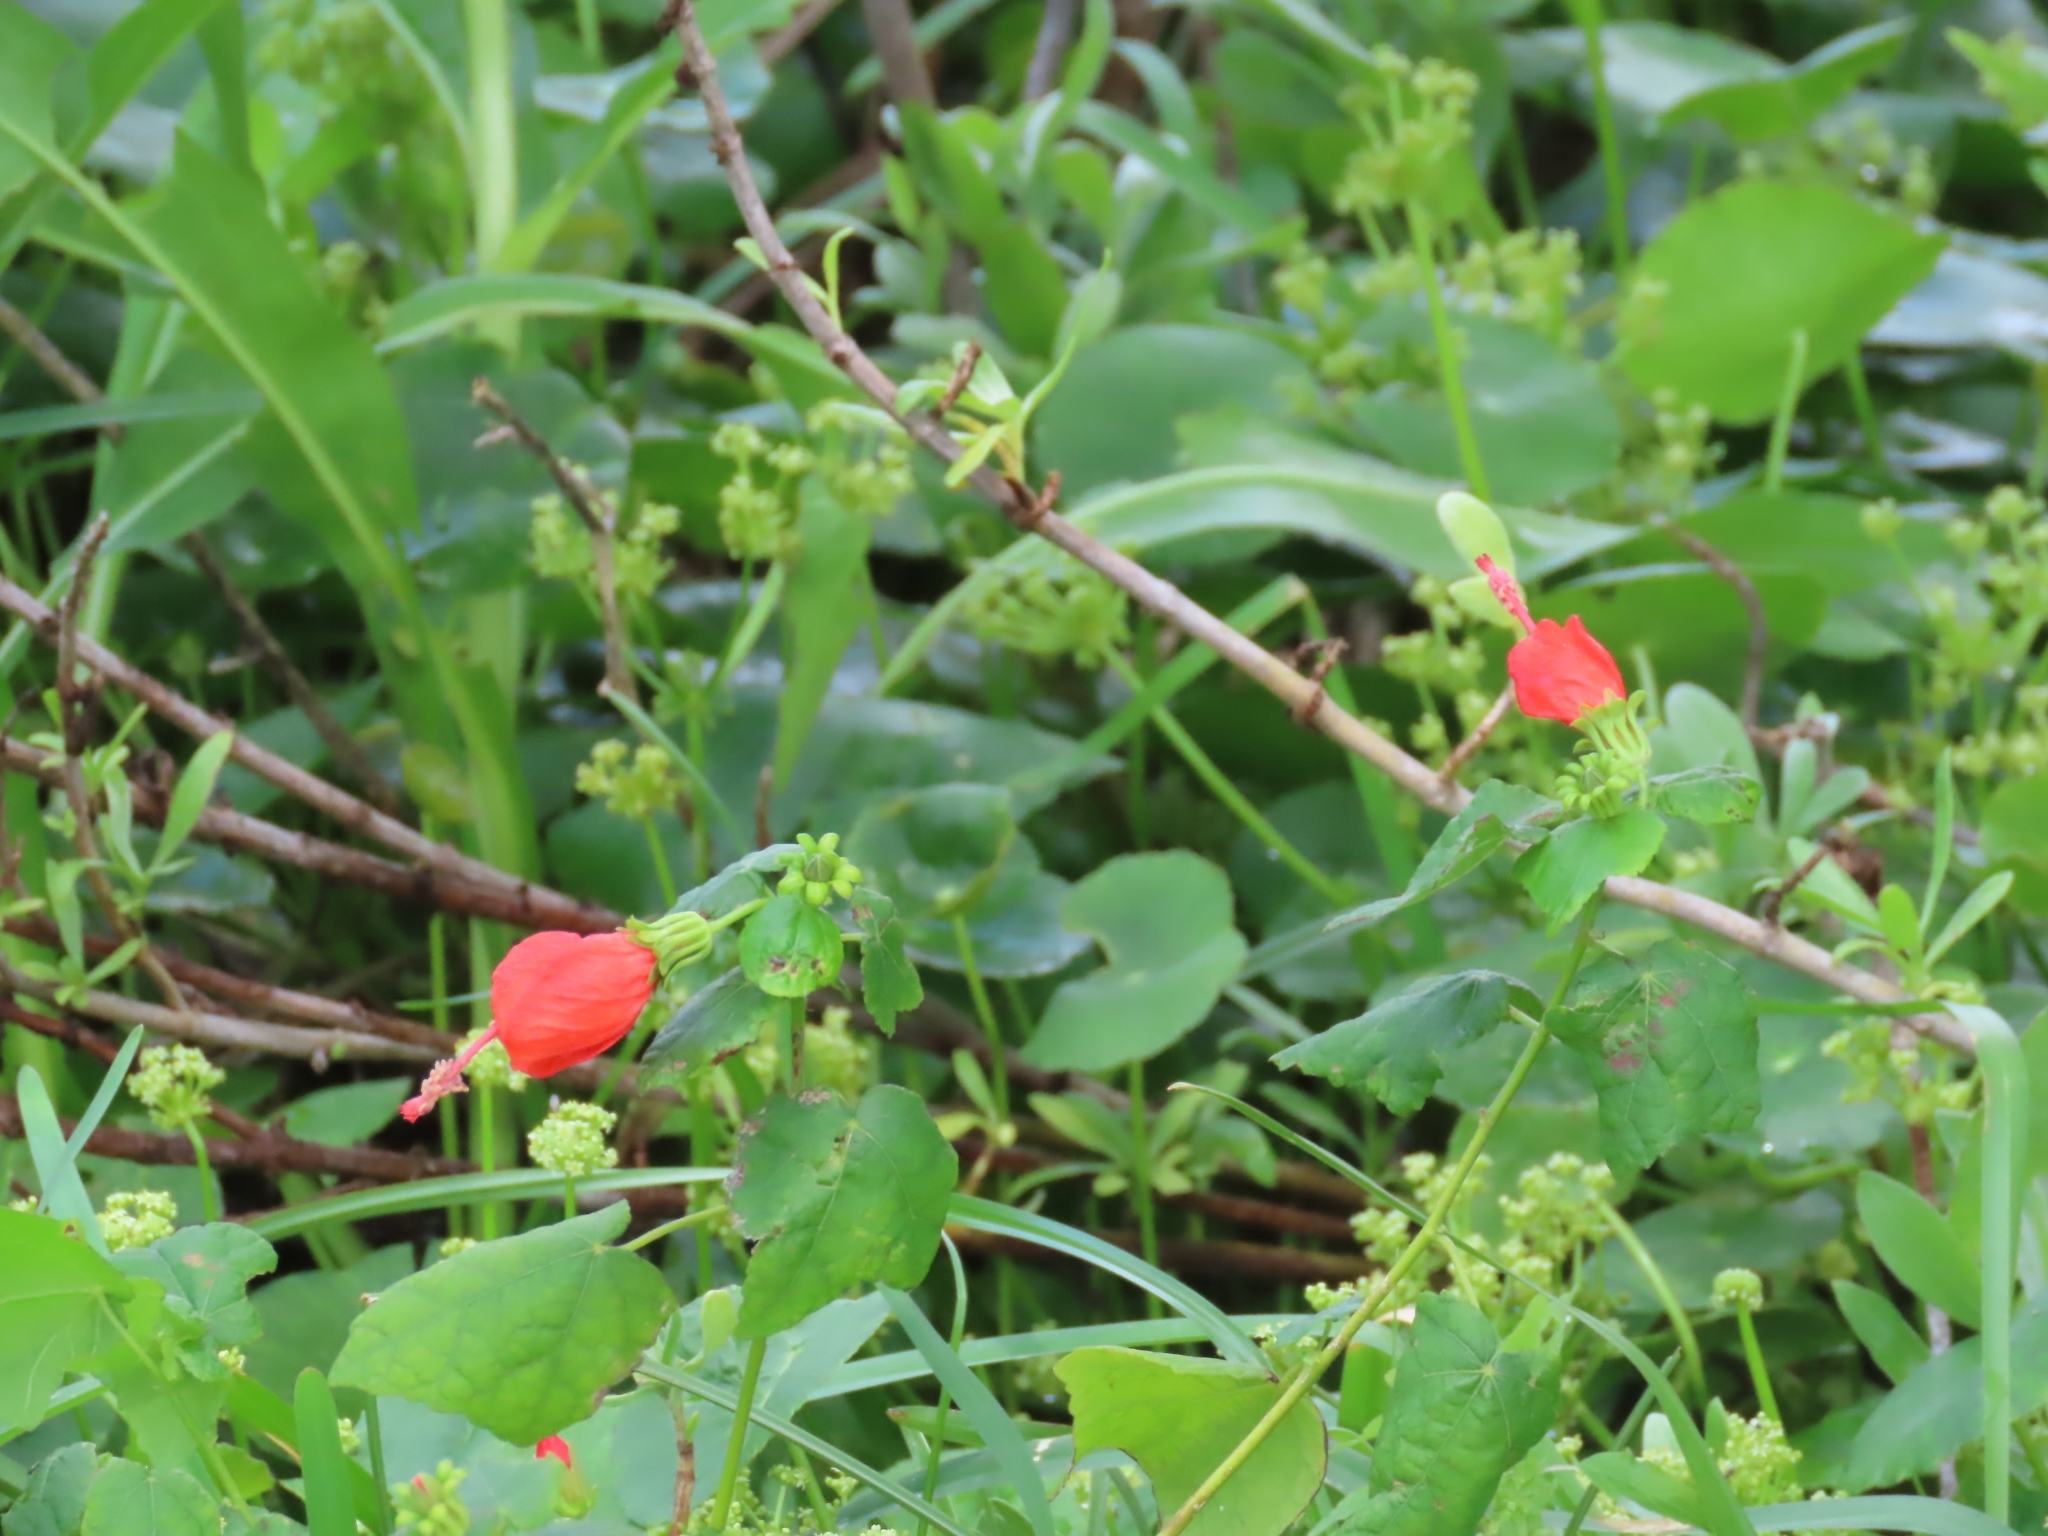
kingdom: Plantae
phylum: Tracheophyta
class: Magnoliopsida
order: Malvales
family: Malvaceae
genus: Malvaviscus
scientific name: Malvaviscus arboreus
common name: Wax mallow
